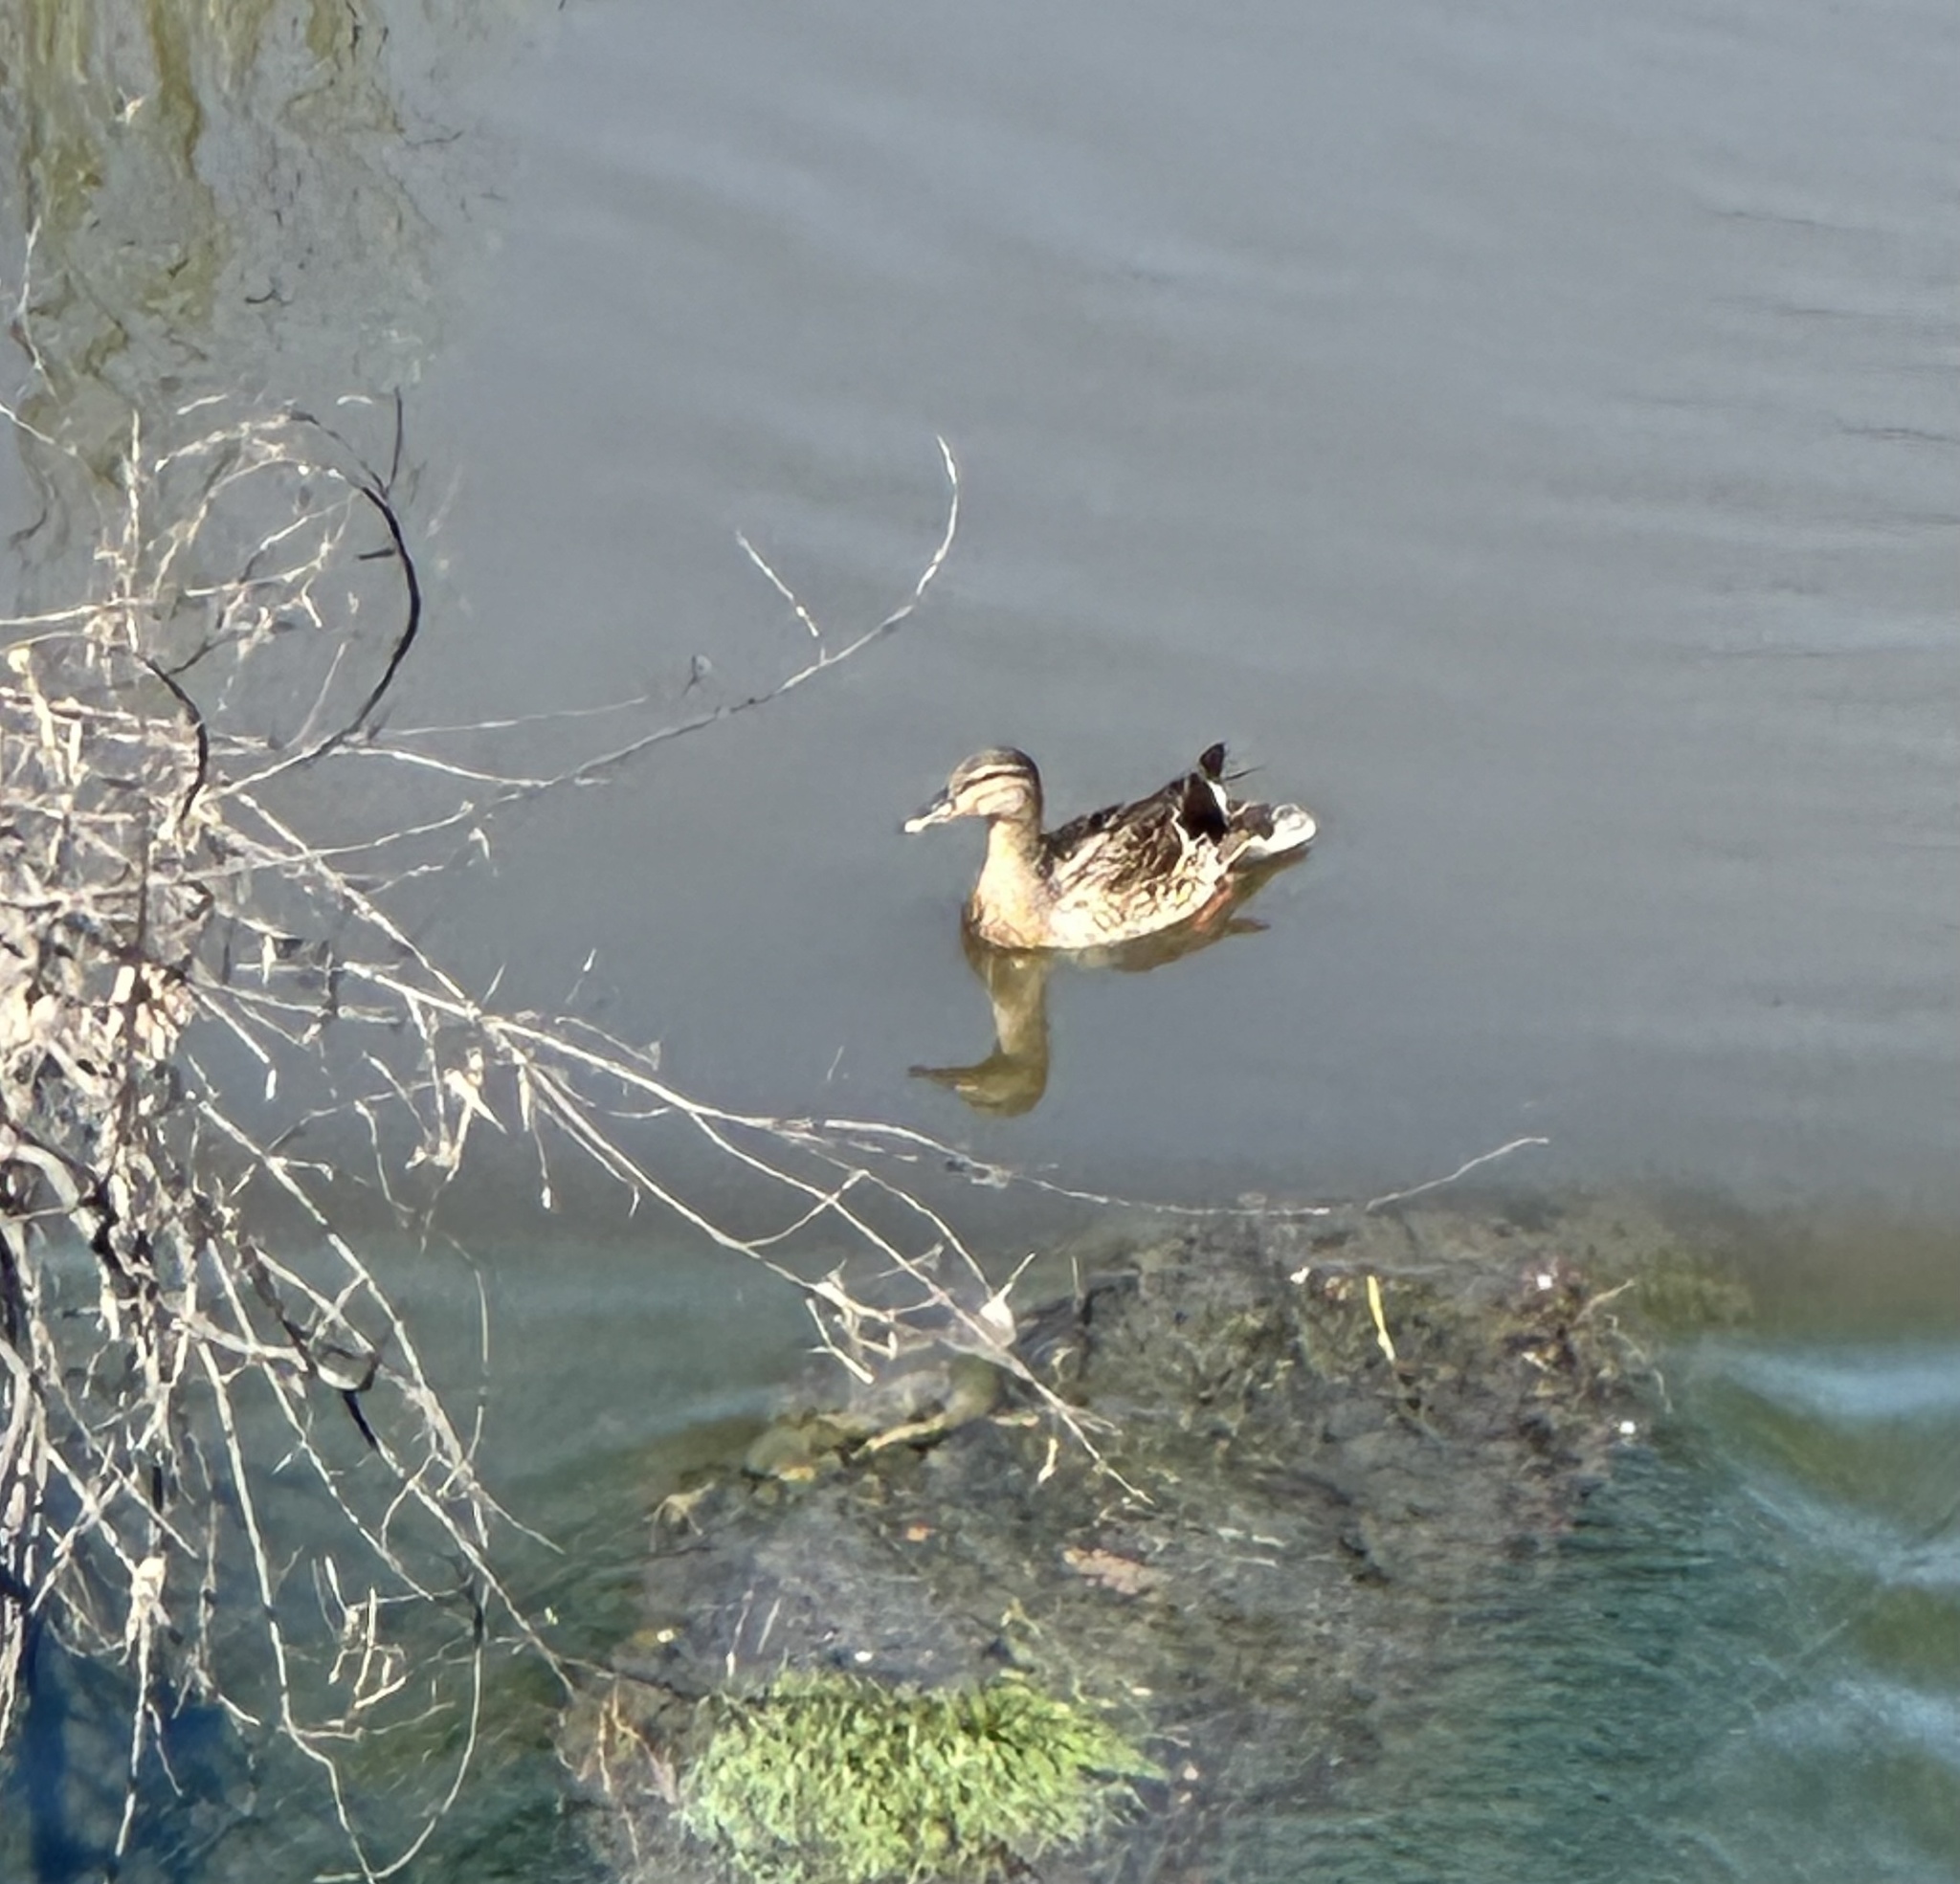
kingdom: Animalia
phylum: Chordata
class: Aves
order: Anseriformes
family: Anatidae
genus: Anas
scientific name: Anas platyrhynchos
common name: Mallard
